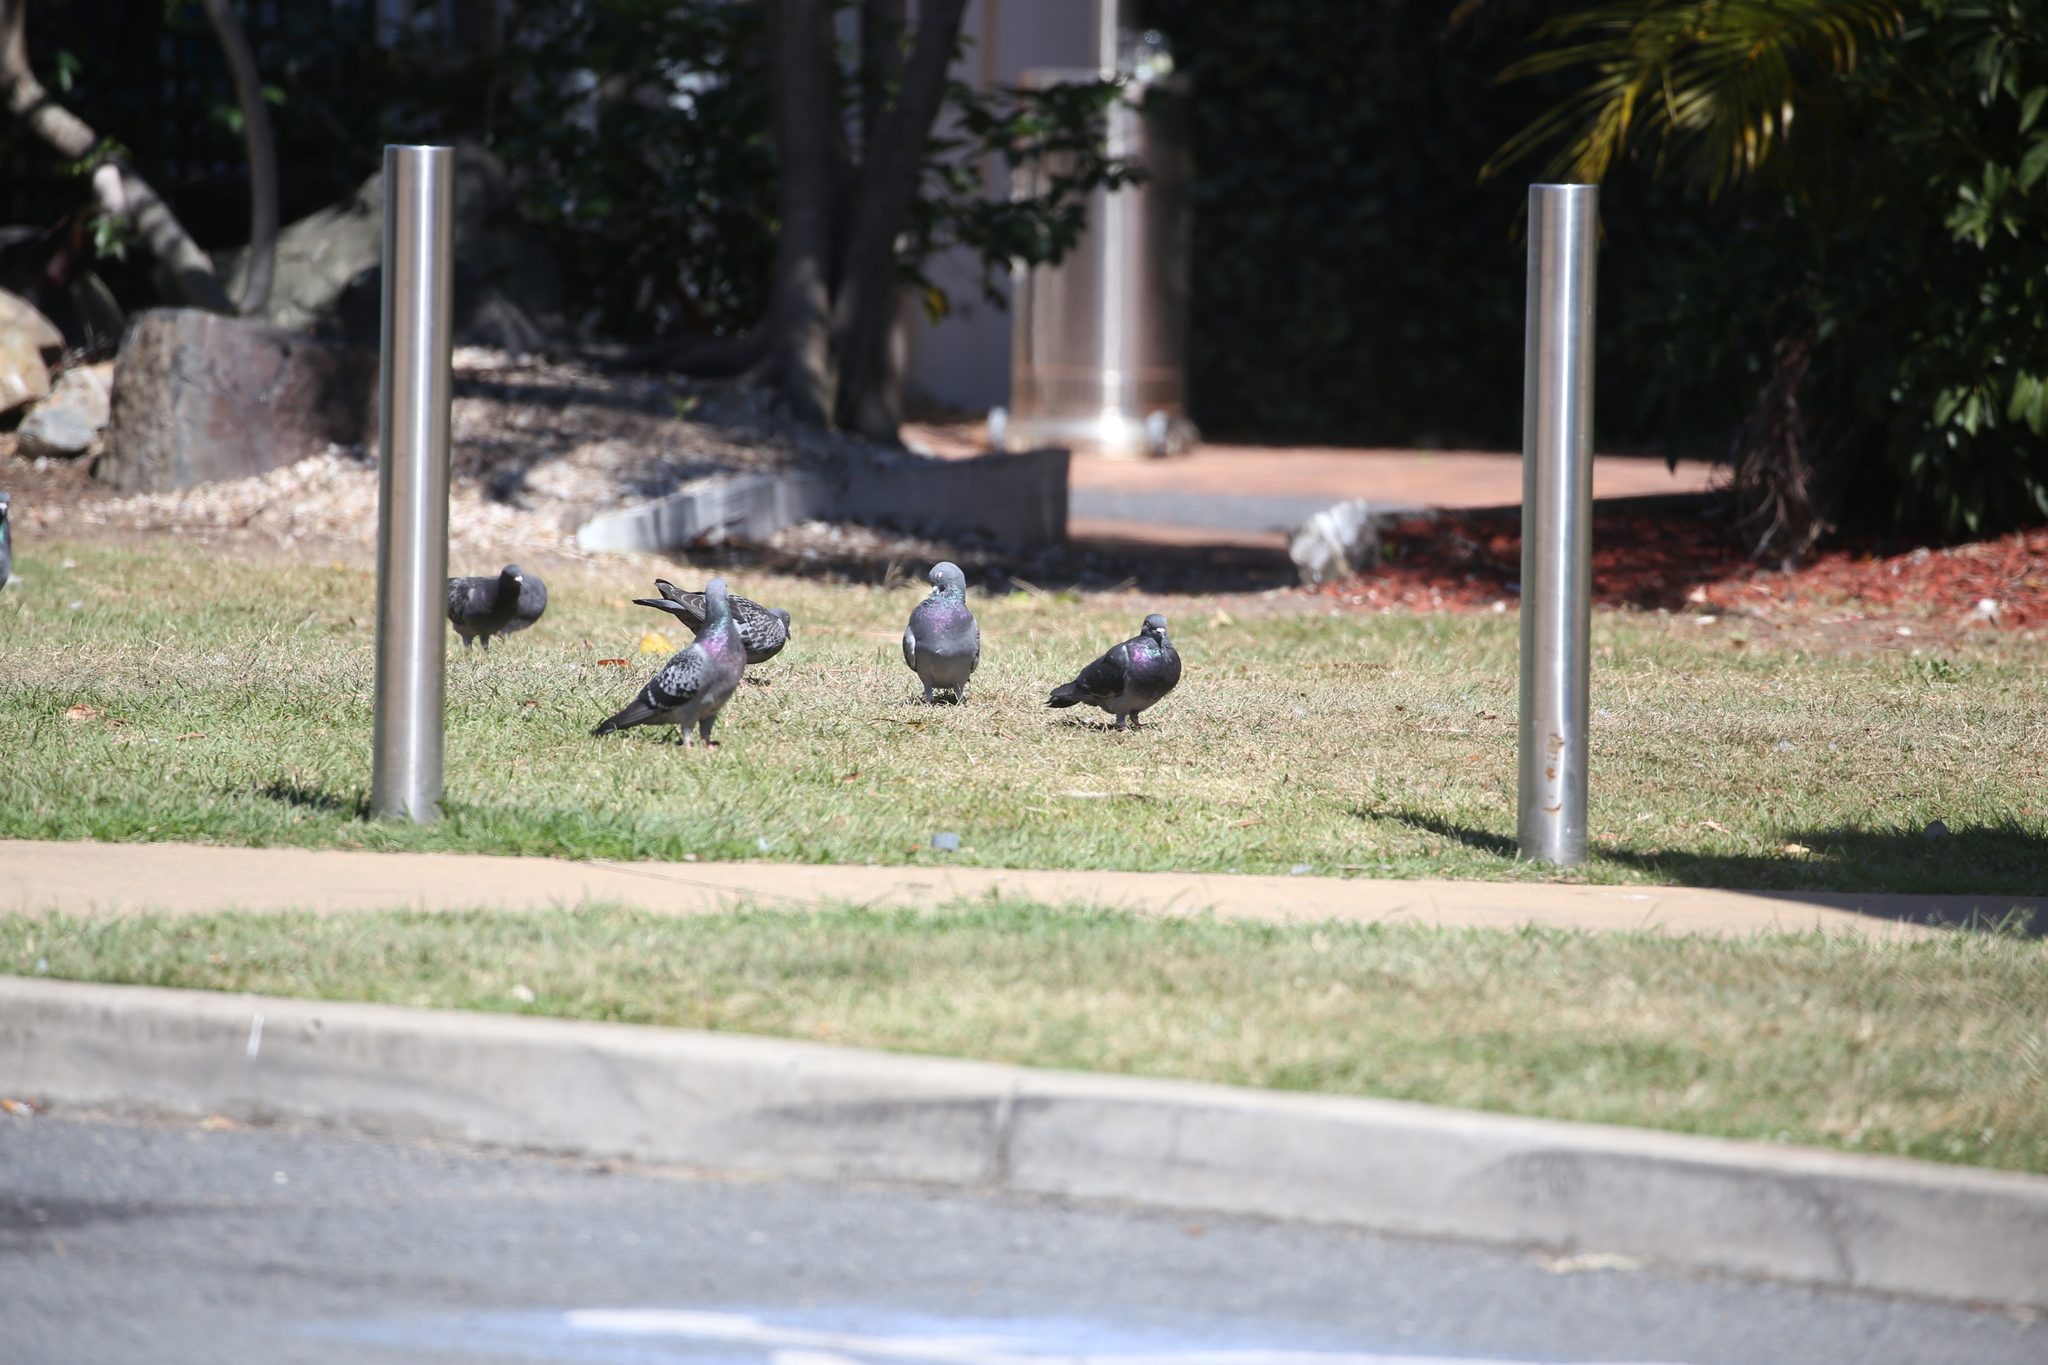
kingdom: Animalia
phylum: Chordata
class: Aves
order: Columbiformes
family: Columbidae
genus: Columba
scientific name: Columba livia
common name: Rock pigeon
